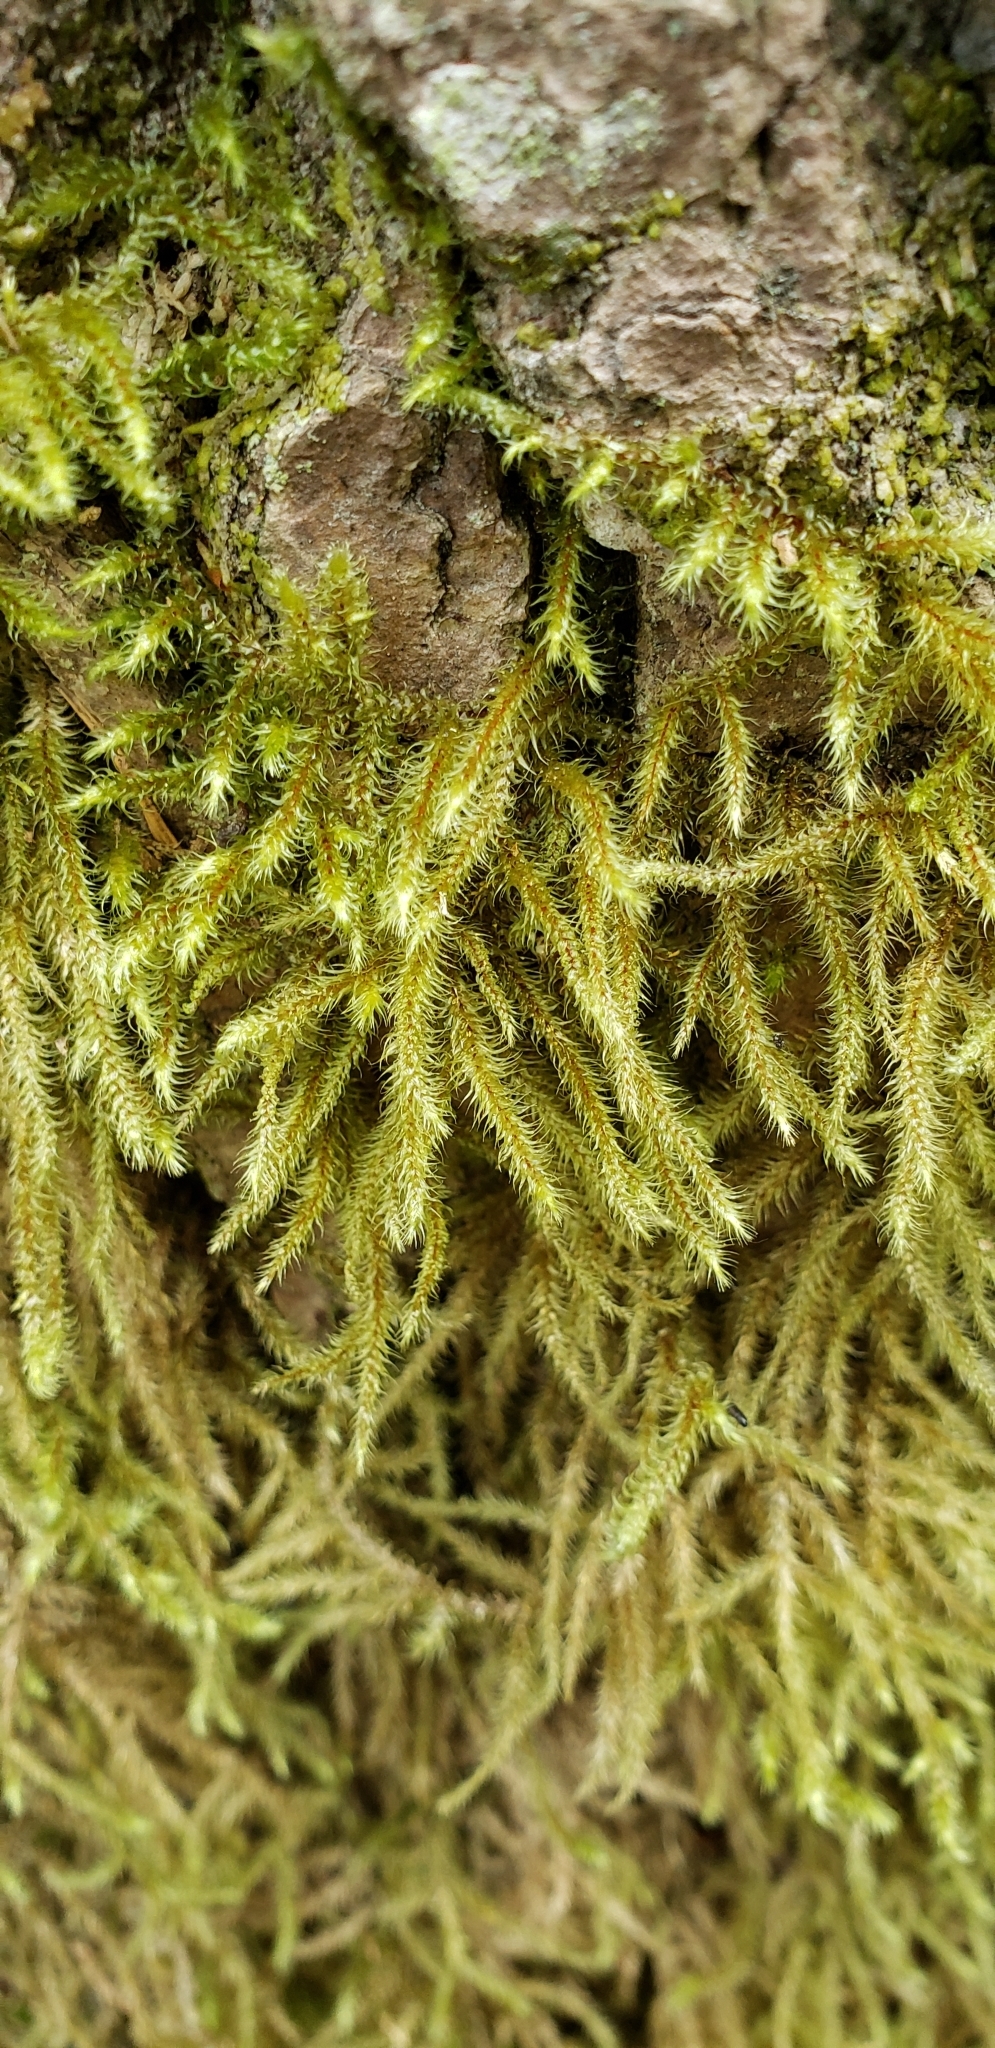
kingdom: Plantae
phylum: Bryophyta
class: Bryopsida
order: Hypnales
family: Hylocomiaceae
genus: Rhytidiadelphus
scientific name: Rhytidiadelphus loreus
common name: Lanky moss
